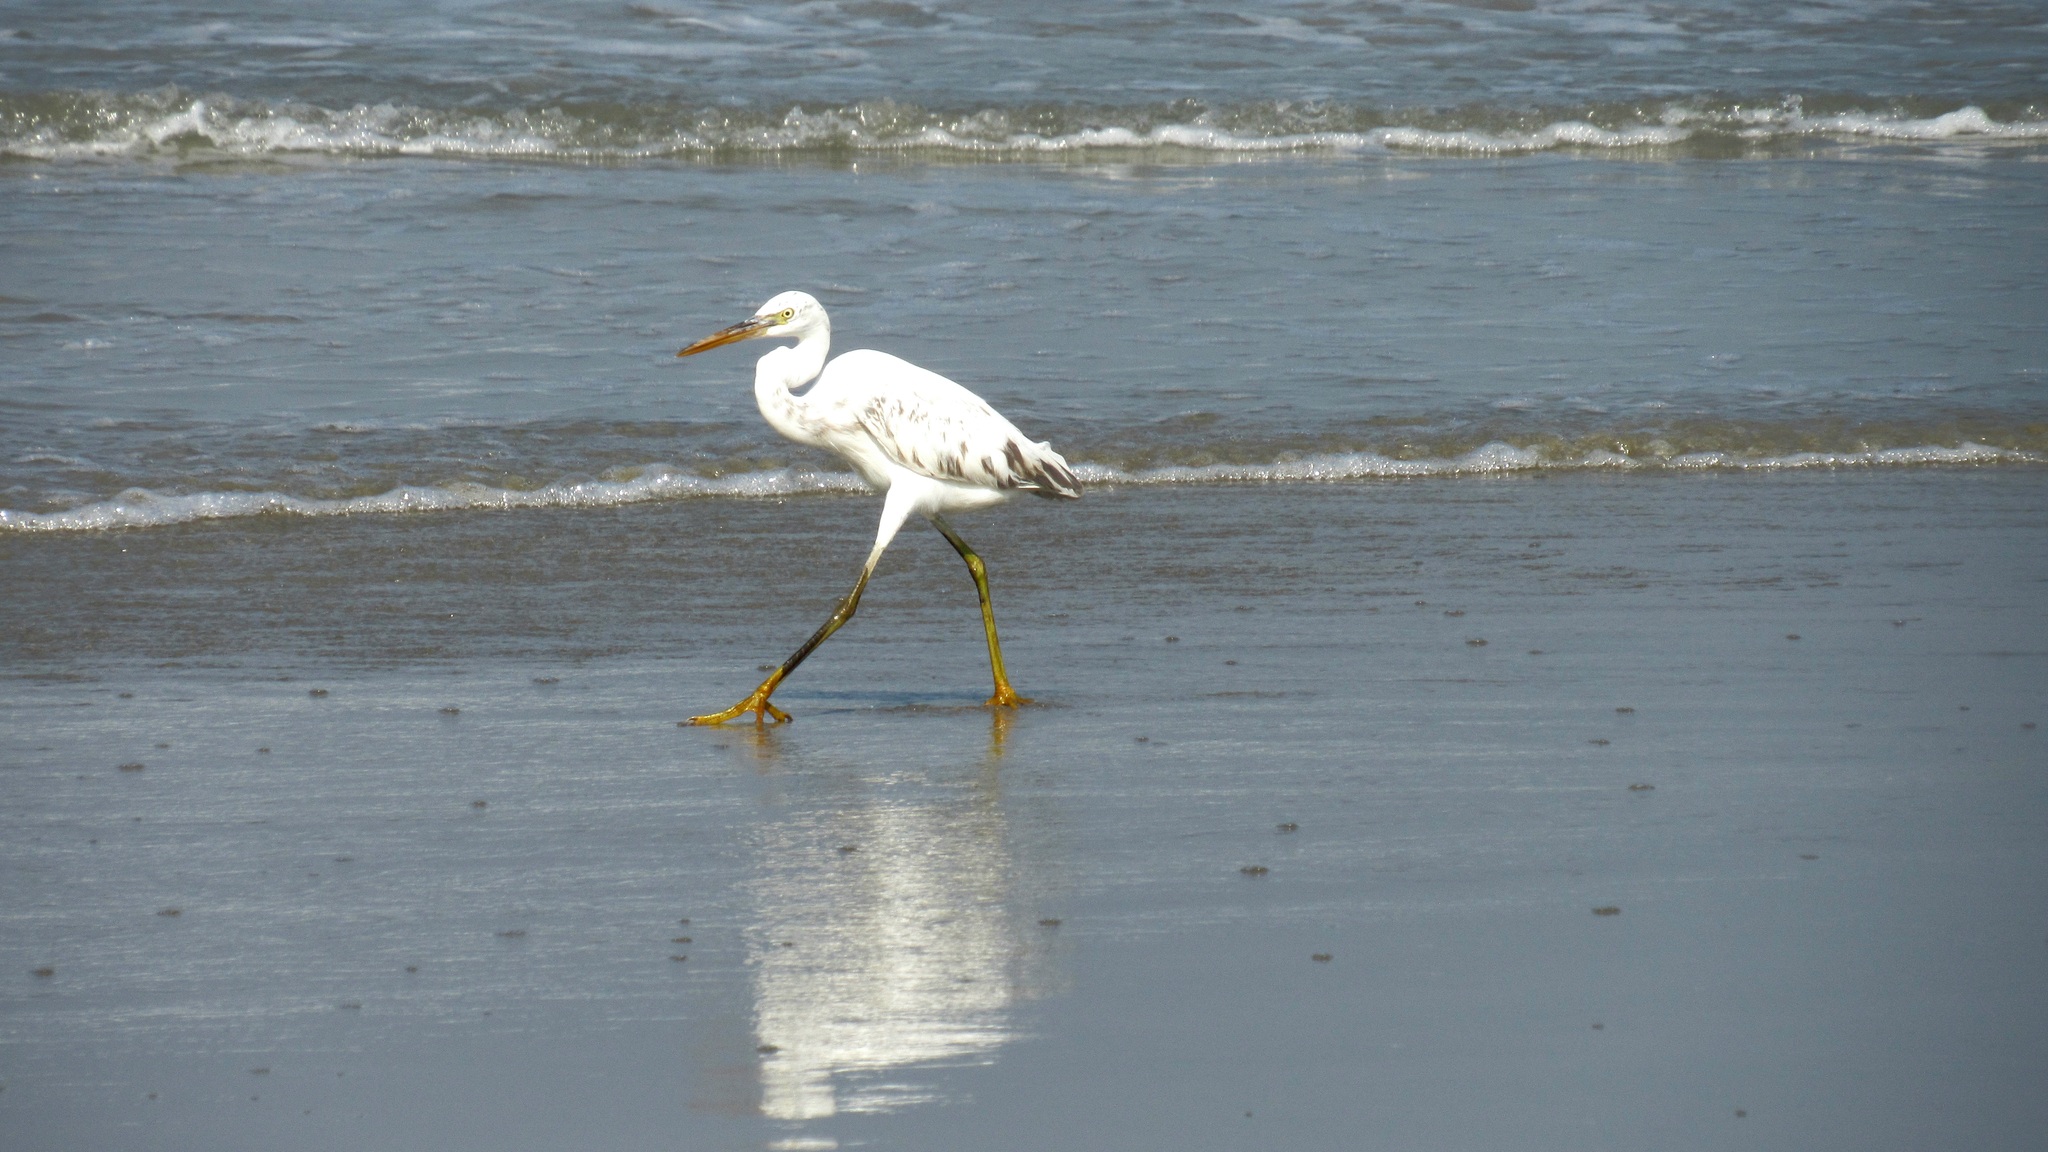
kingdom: Animalia
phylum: Chordata
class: Aves
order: Pelecaniformes
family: Ardeidae
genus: Egretta
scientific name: Egretta gularis
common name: Western reef-heron
